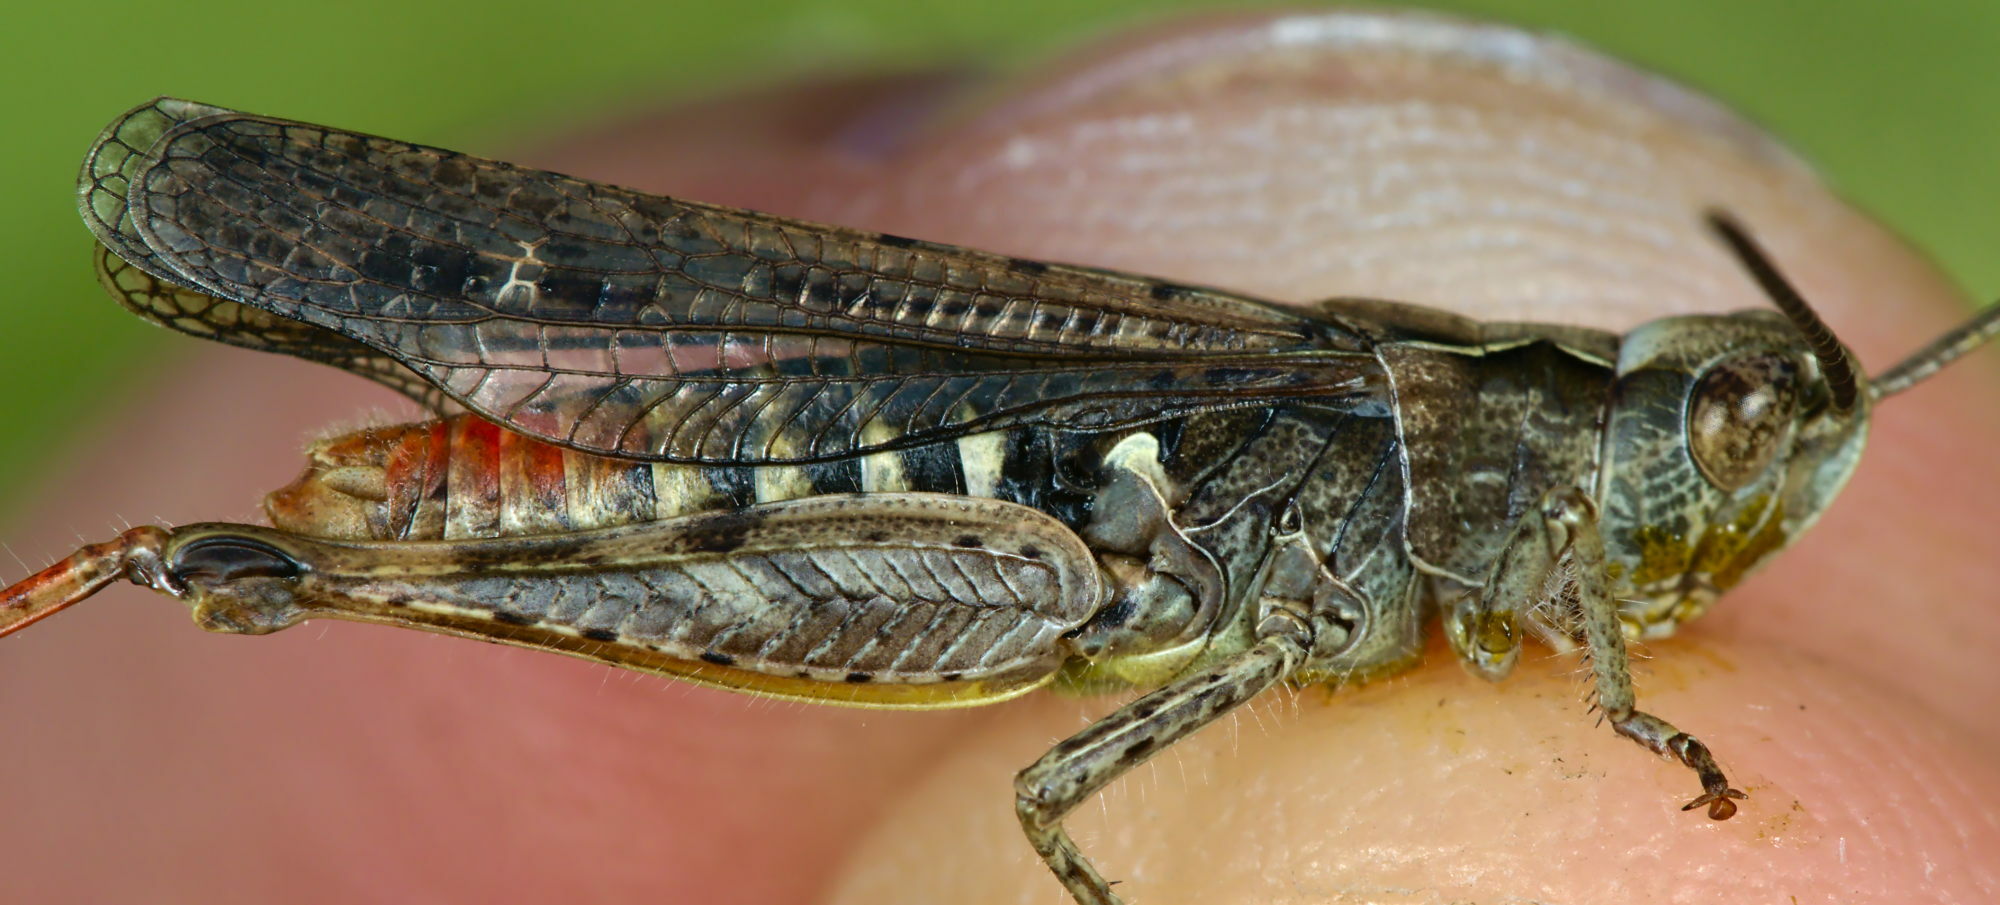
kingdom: Animalia
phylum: Arthropoda
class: Insecta
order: Orthoptera
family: Acrididae
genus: Chorthippus
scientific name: Chorthippus biguttulus
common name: Bow-winged grasshopper
